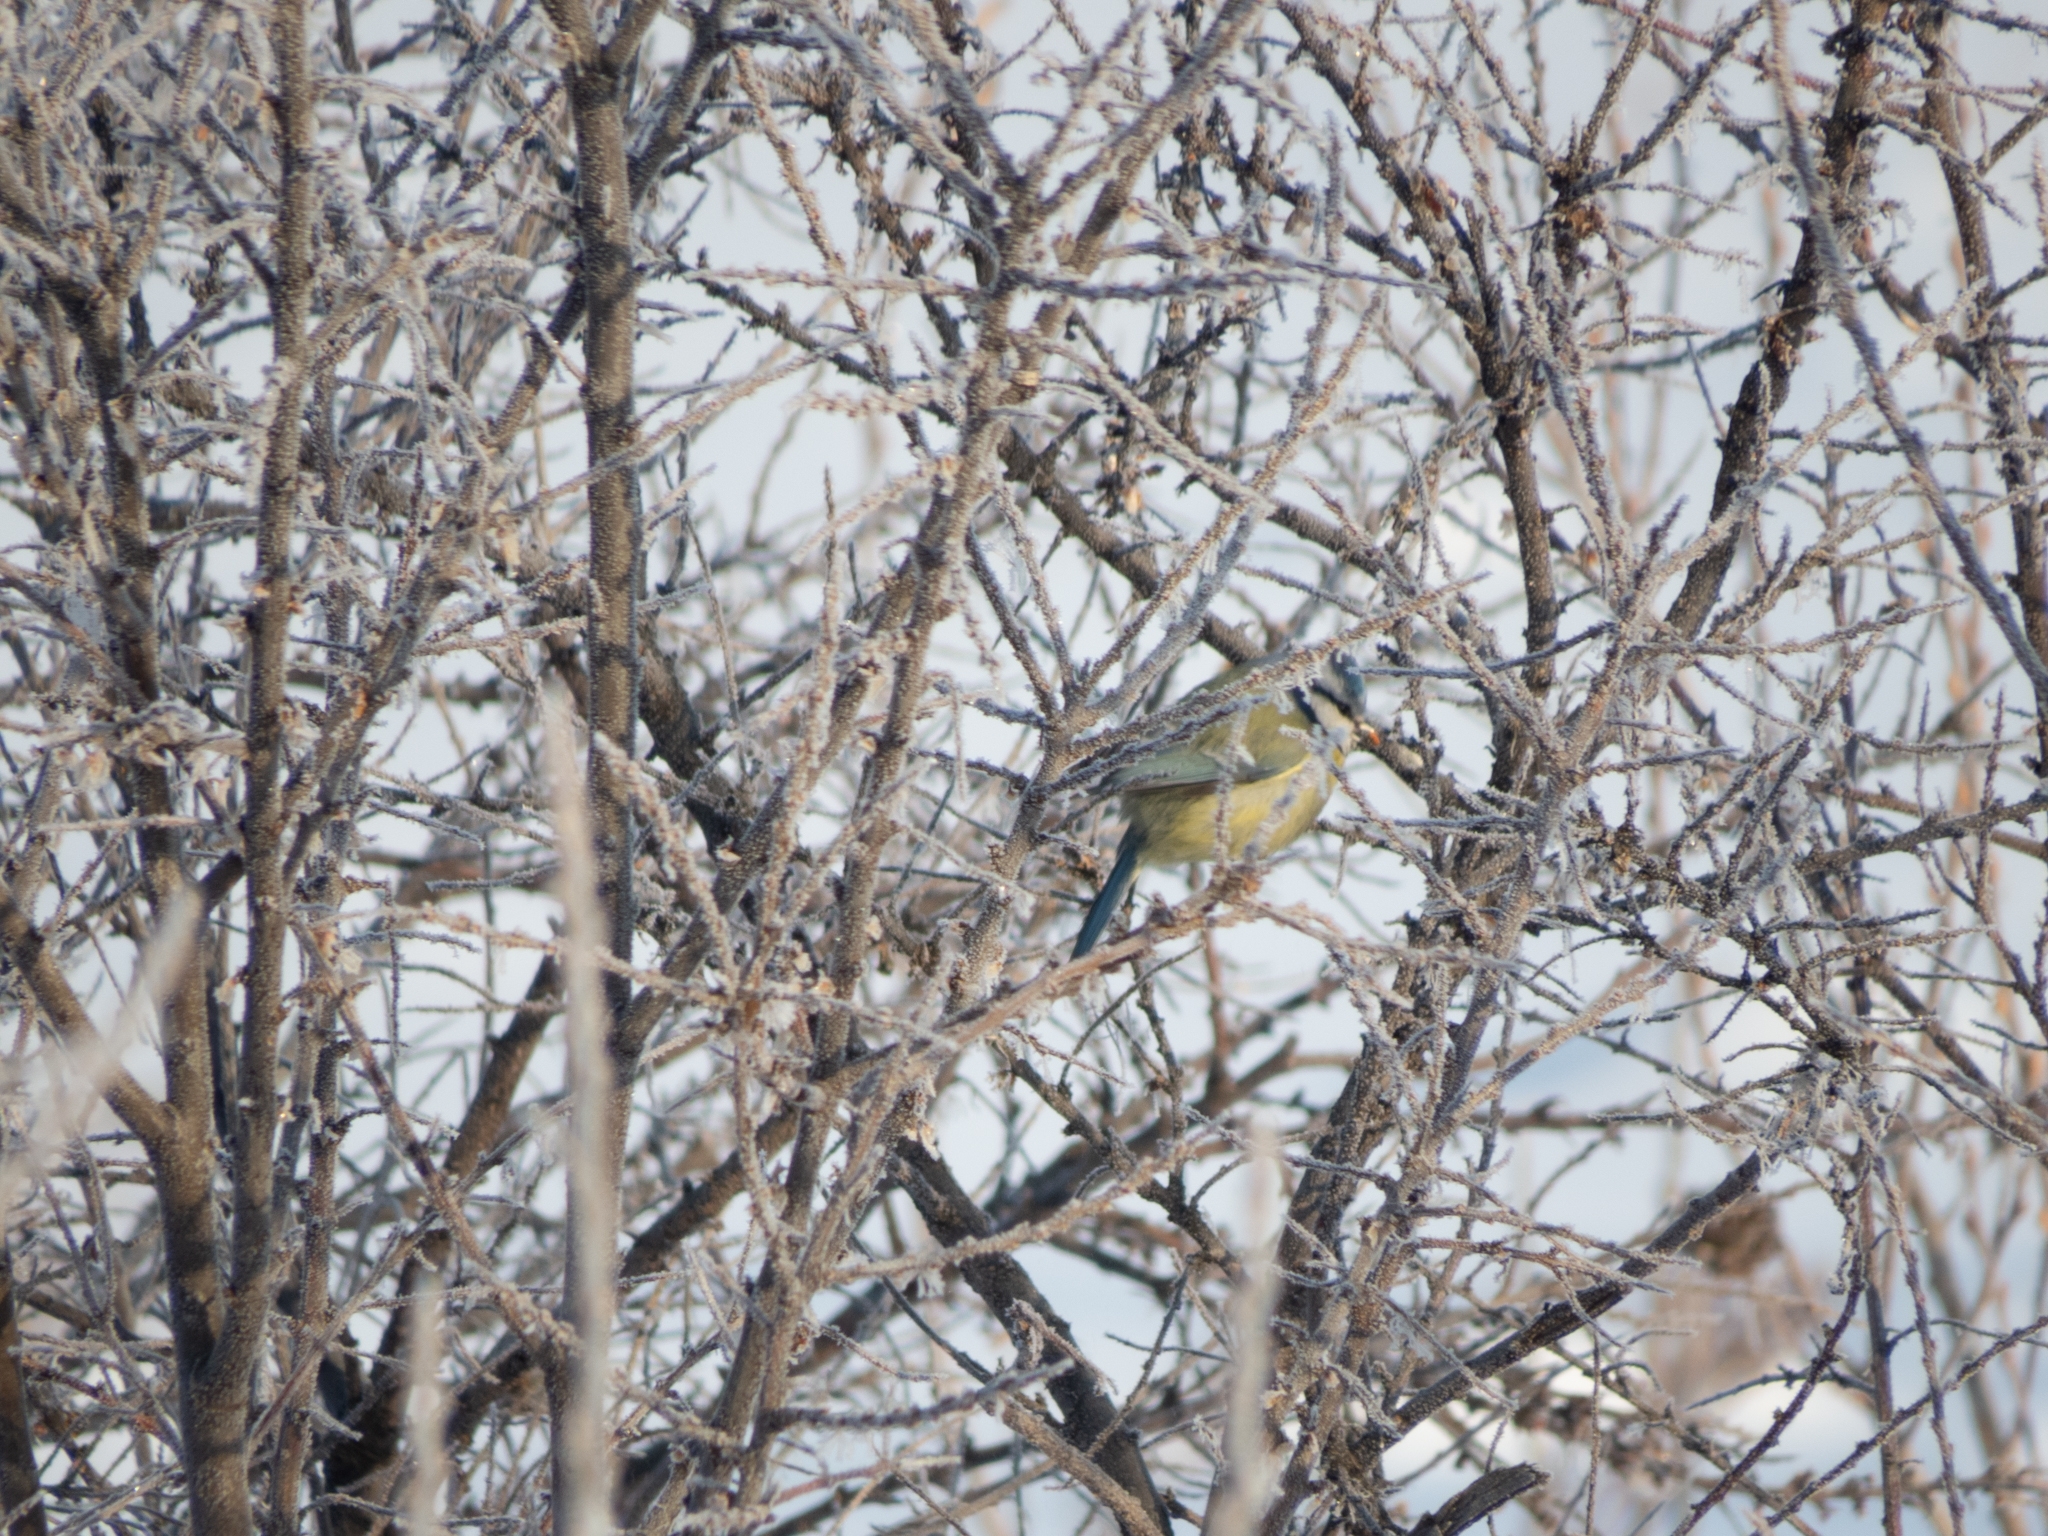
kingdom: Animalia
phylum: Chordata
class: Aves
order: Passeriformes
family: Paridae
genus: Cyanistes
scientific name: Cyanistes caeruleus
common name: Eurasian blue tit
